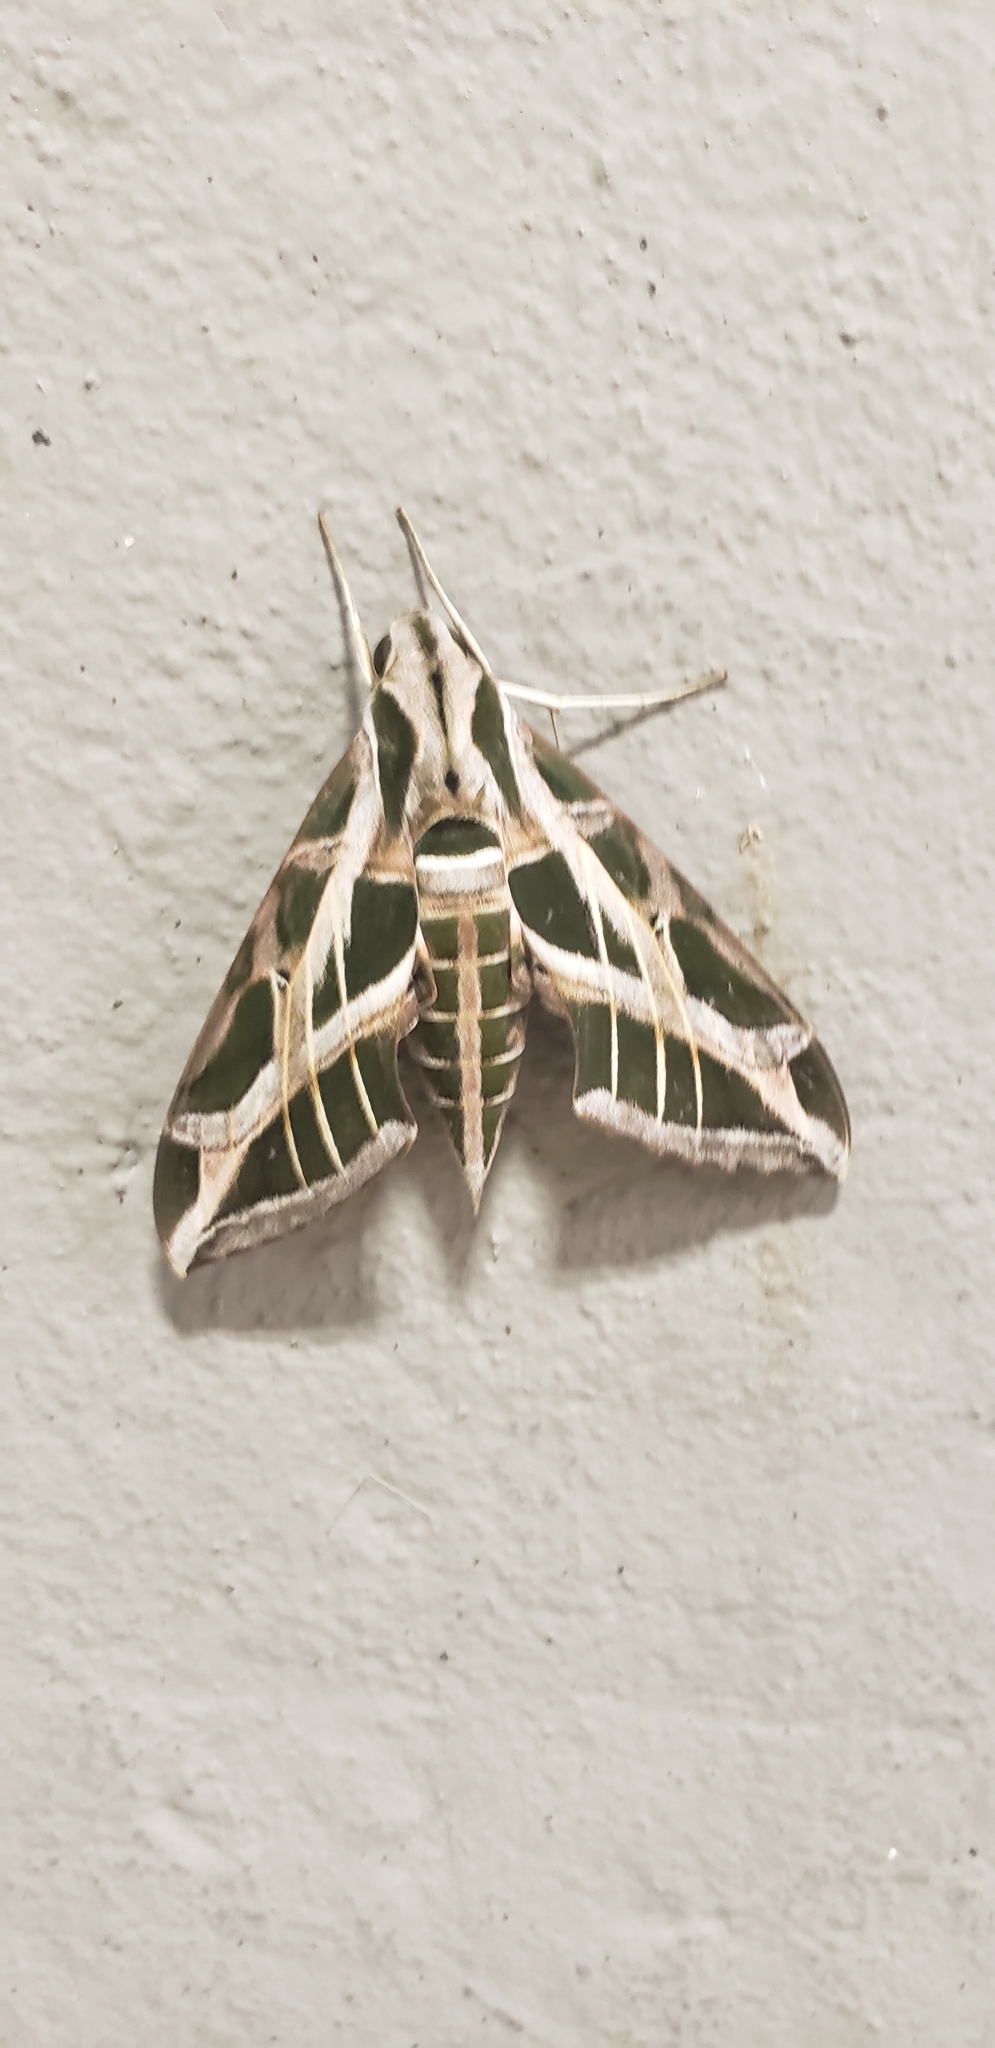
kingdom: Animalia
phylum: Arthropoda
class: Insecta
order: Lepidoptera
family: Sphingidae
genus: Eumorpha
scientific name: Eumorpha vitis
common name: Vine sphinx
